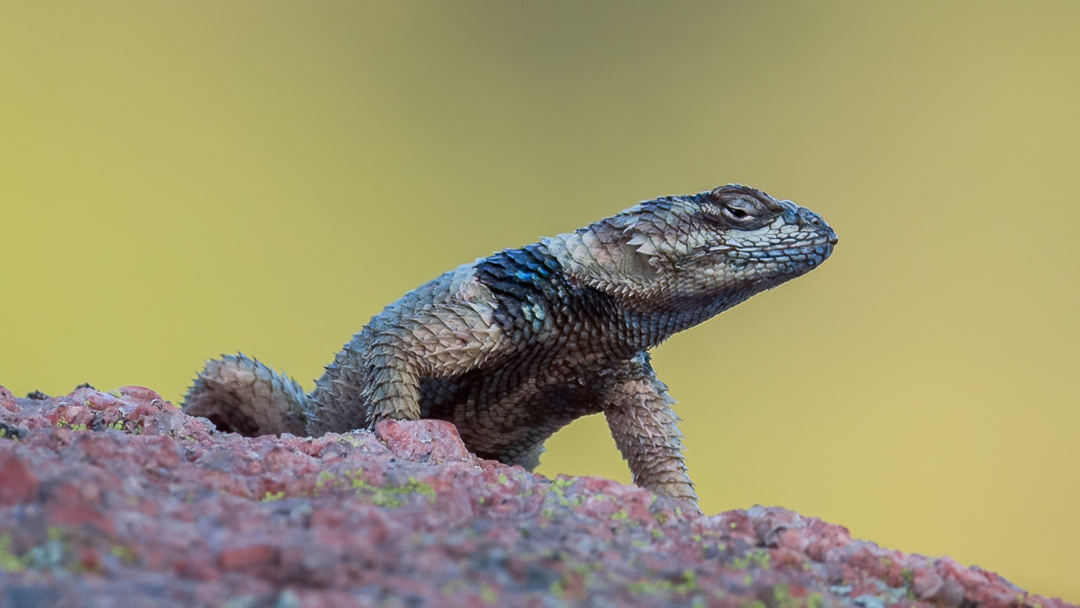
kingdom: Animalia
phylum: Chordata
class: Squamata
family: Phrynosomatidae
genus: Sceloporus
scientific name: Sceloporus poinsettii
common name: Crevice spiny lizard
